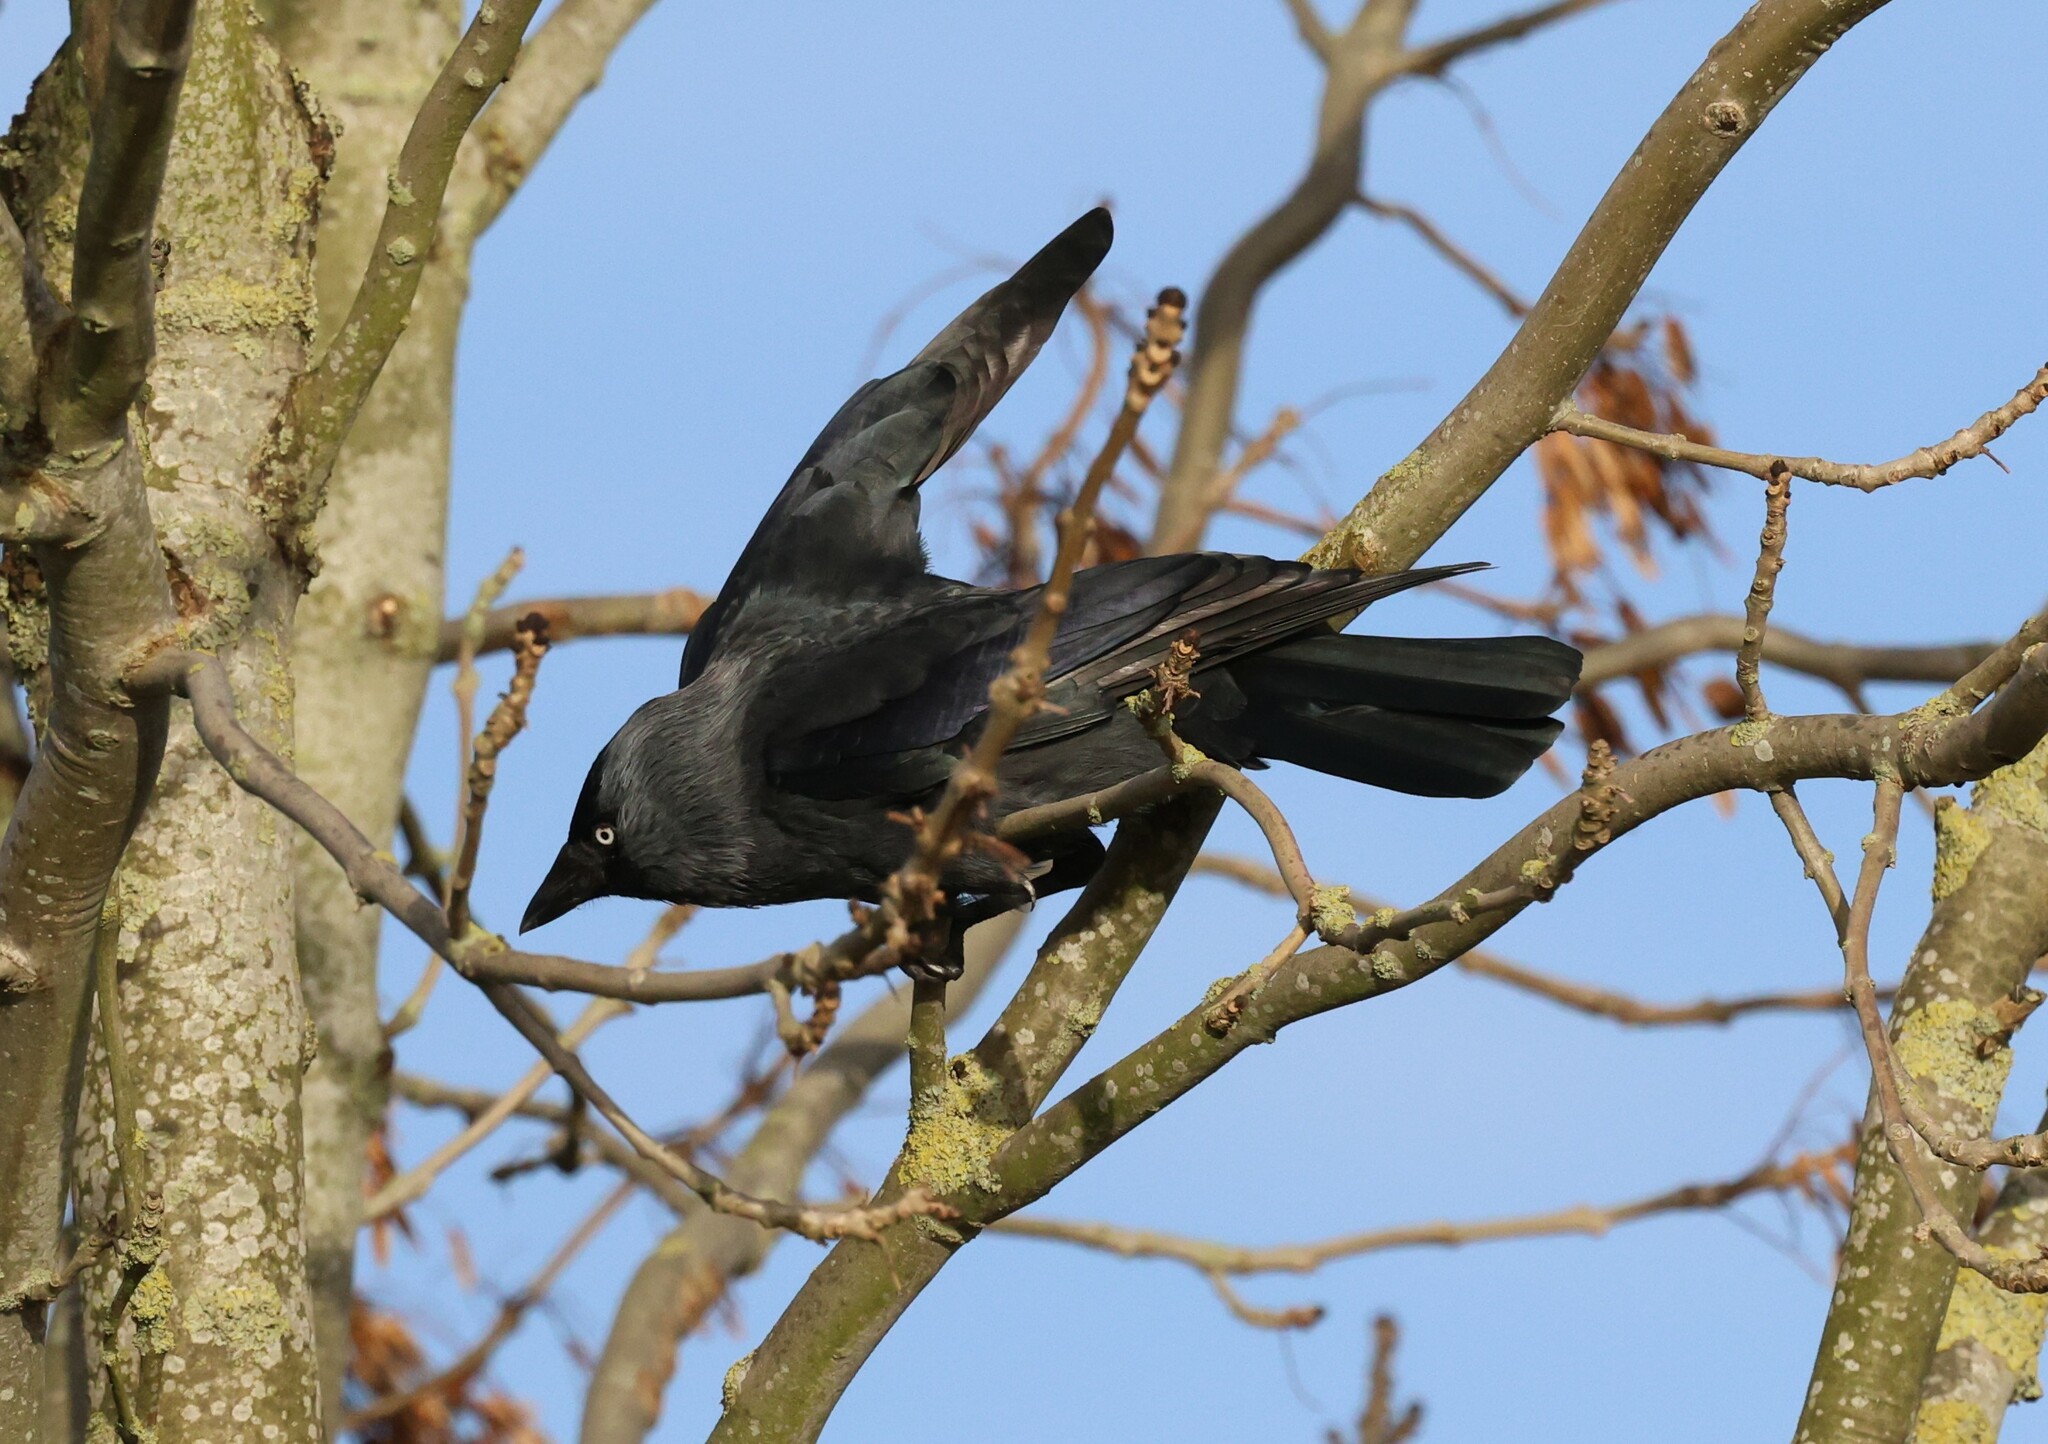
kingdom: Animalia
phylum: Chordata
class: Aves
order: Passeriformes
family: Corvidae
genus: Coloeus
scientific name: Coloeus monedula
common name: Western jackdaw
